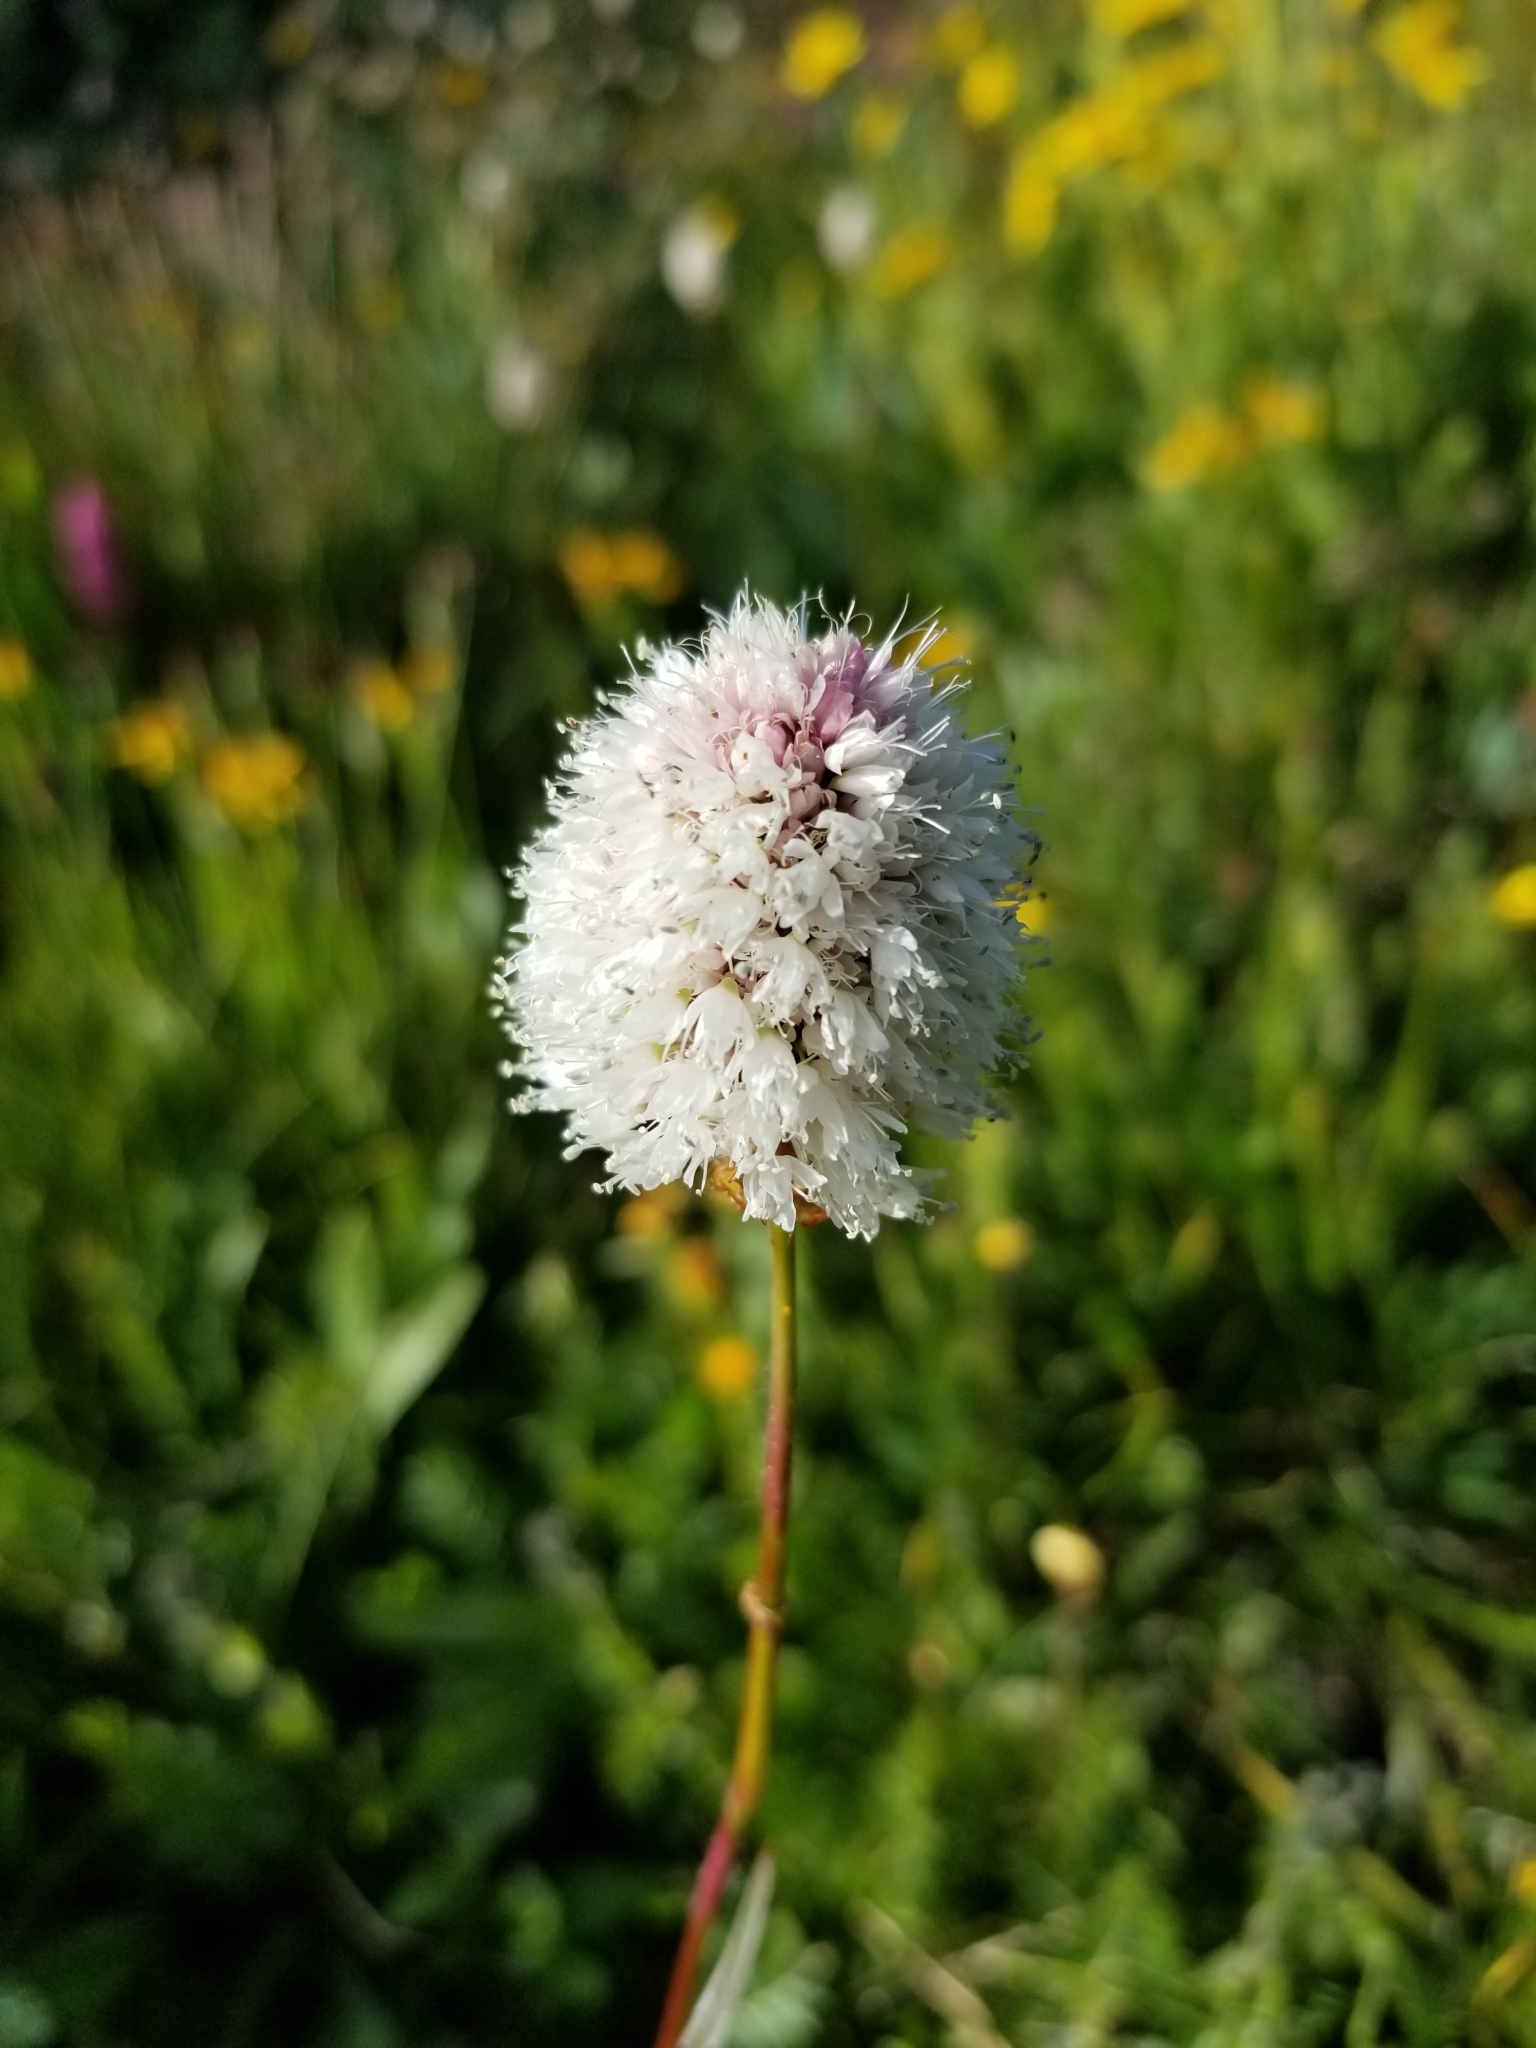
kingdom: Plantae
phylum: Tracheophyta
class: Magnoliopsida
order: Caryophyllales
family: Polygonaceae
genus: Bistorta
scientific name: Bistorta bistortoides
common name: American bistort
